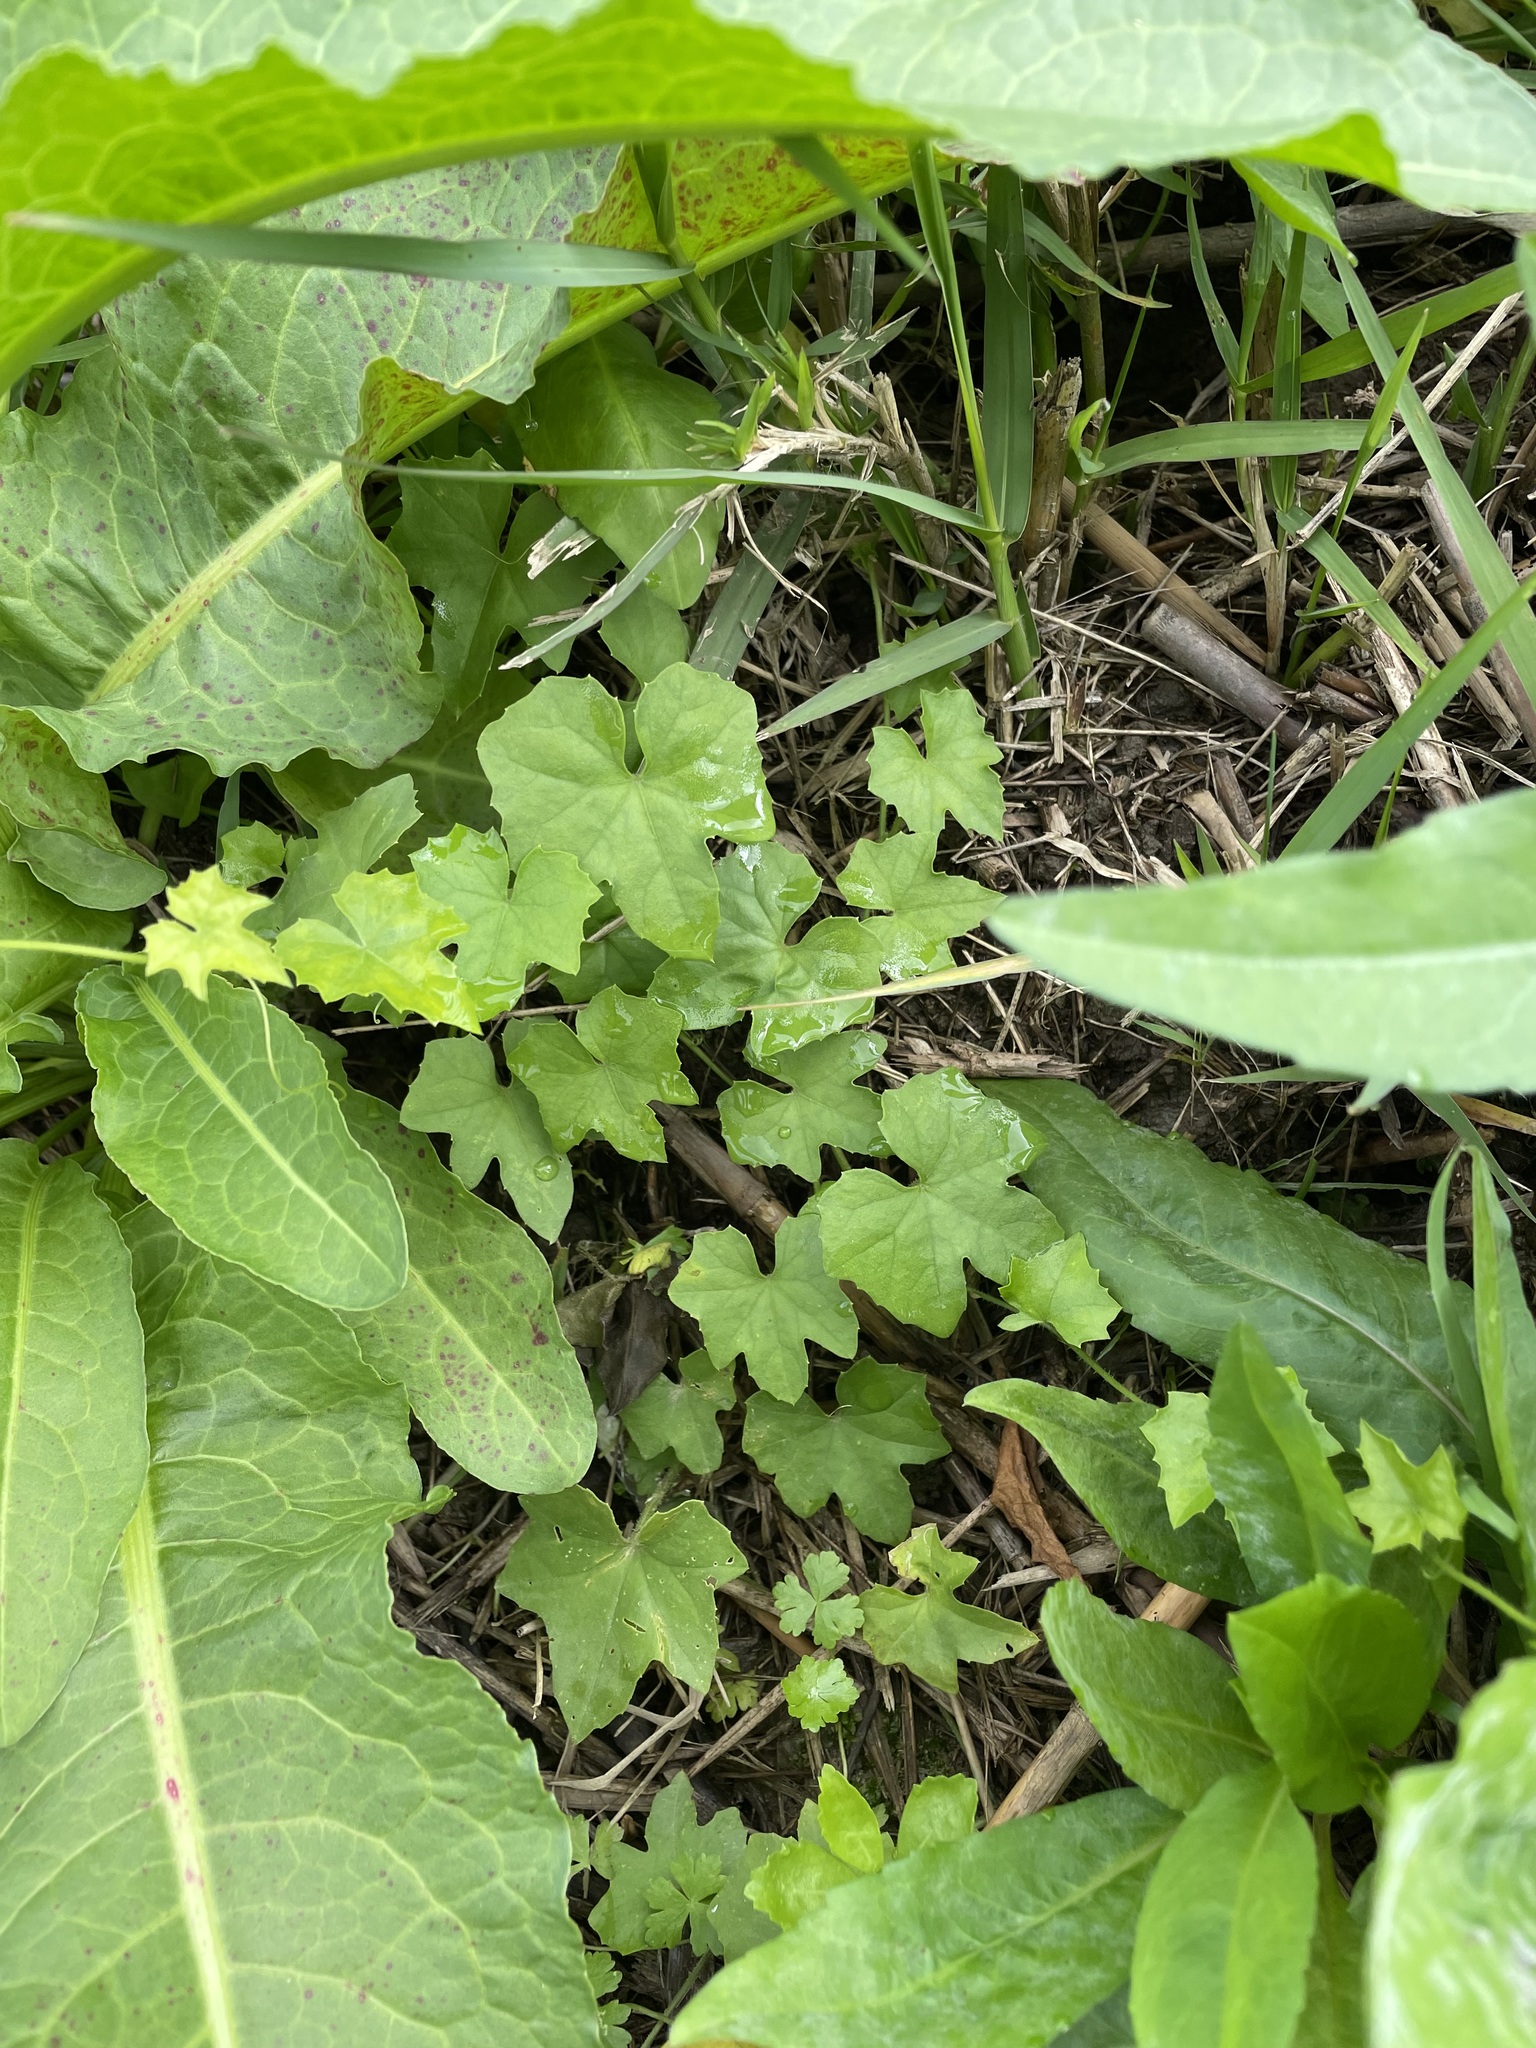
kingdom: Plantae
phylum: Tracheophyta
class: Magnoliopsida
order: Cucurbitales
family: Cucurbitaceae
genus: Melothria
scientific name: Melothria pendula
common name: Creeping-cucumber
